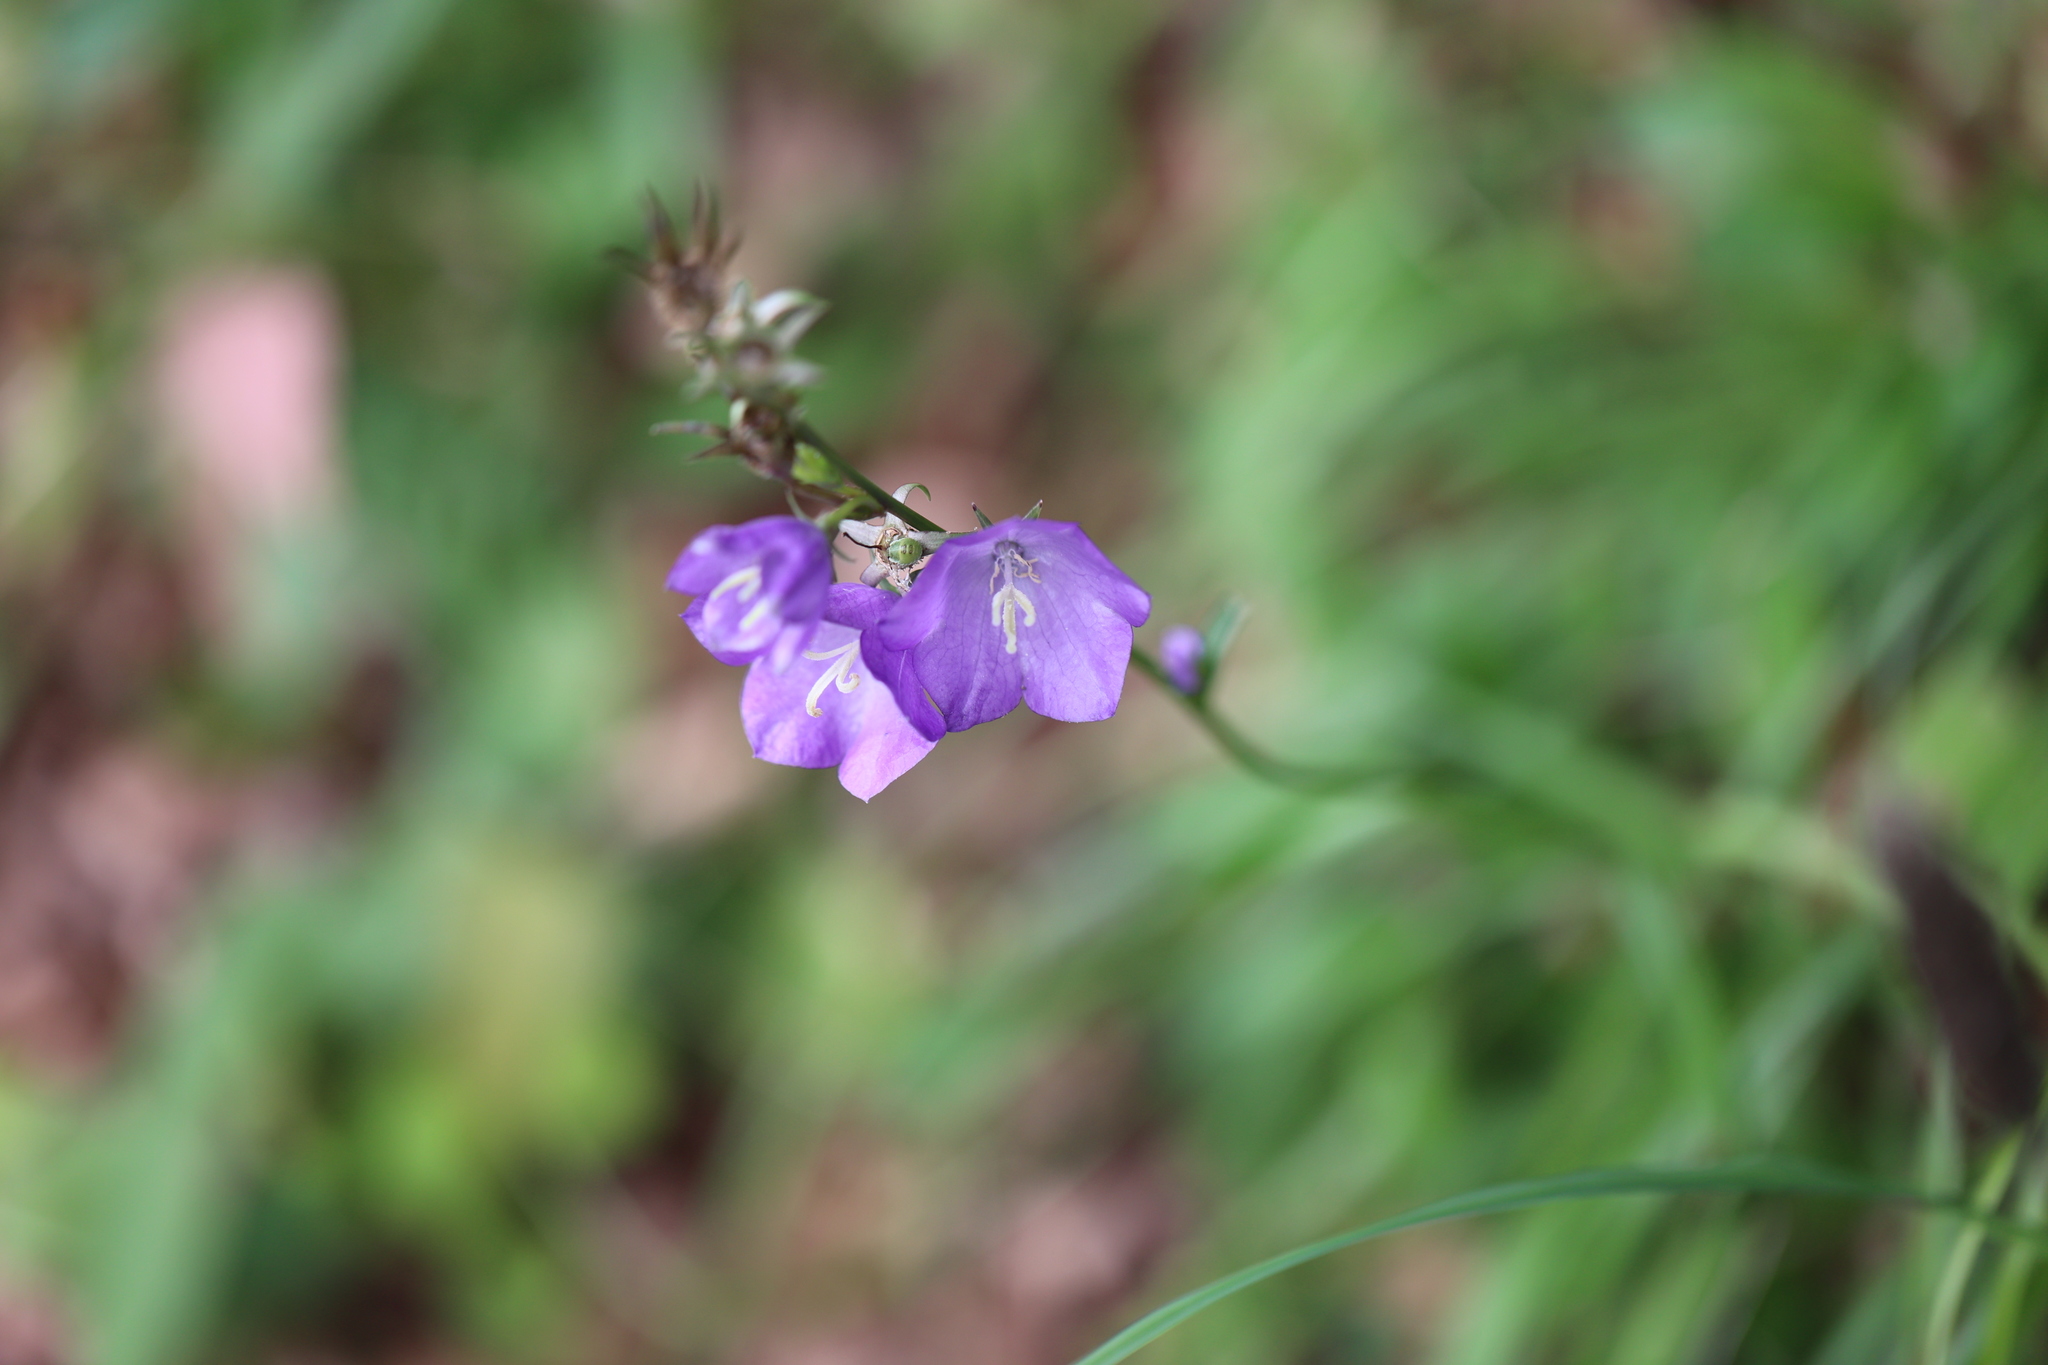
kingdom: Plantae
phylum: Tracheophyta
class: Magnoliopsida
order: Asterales
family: Campanulaceae
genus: Campanula
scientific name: Campanula persicifolia
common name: Peach-leaved bellflower
